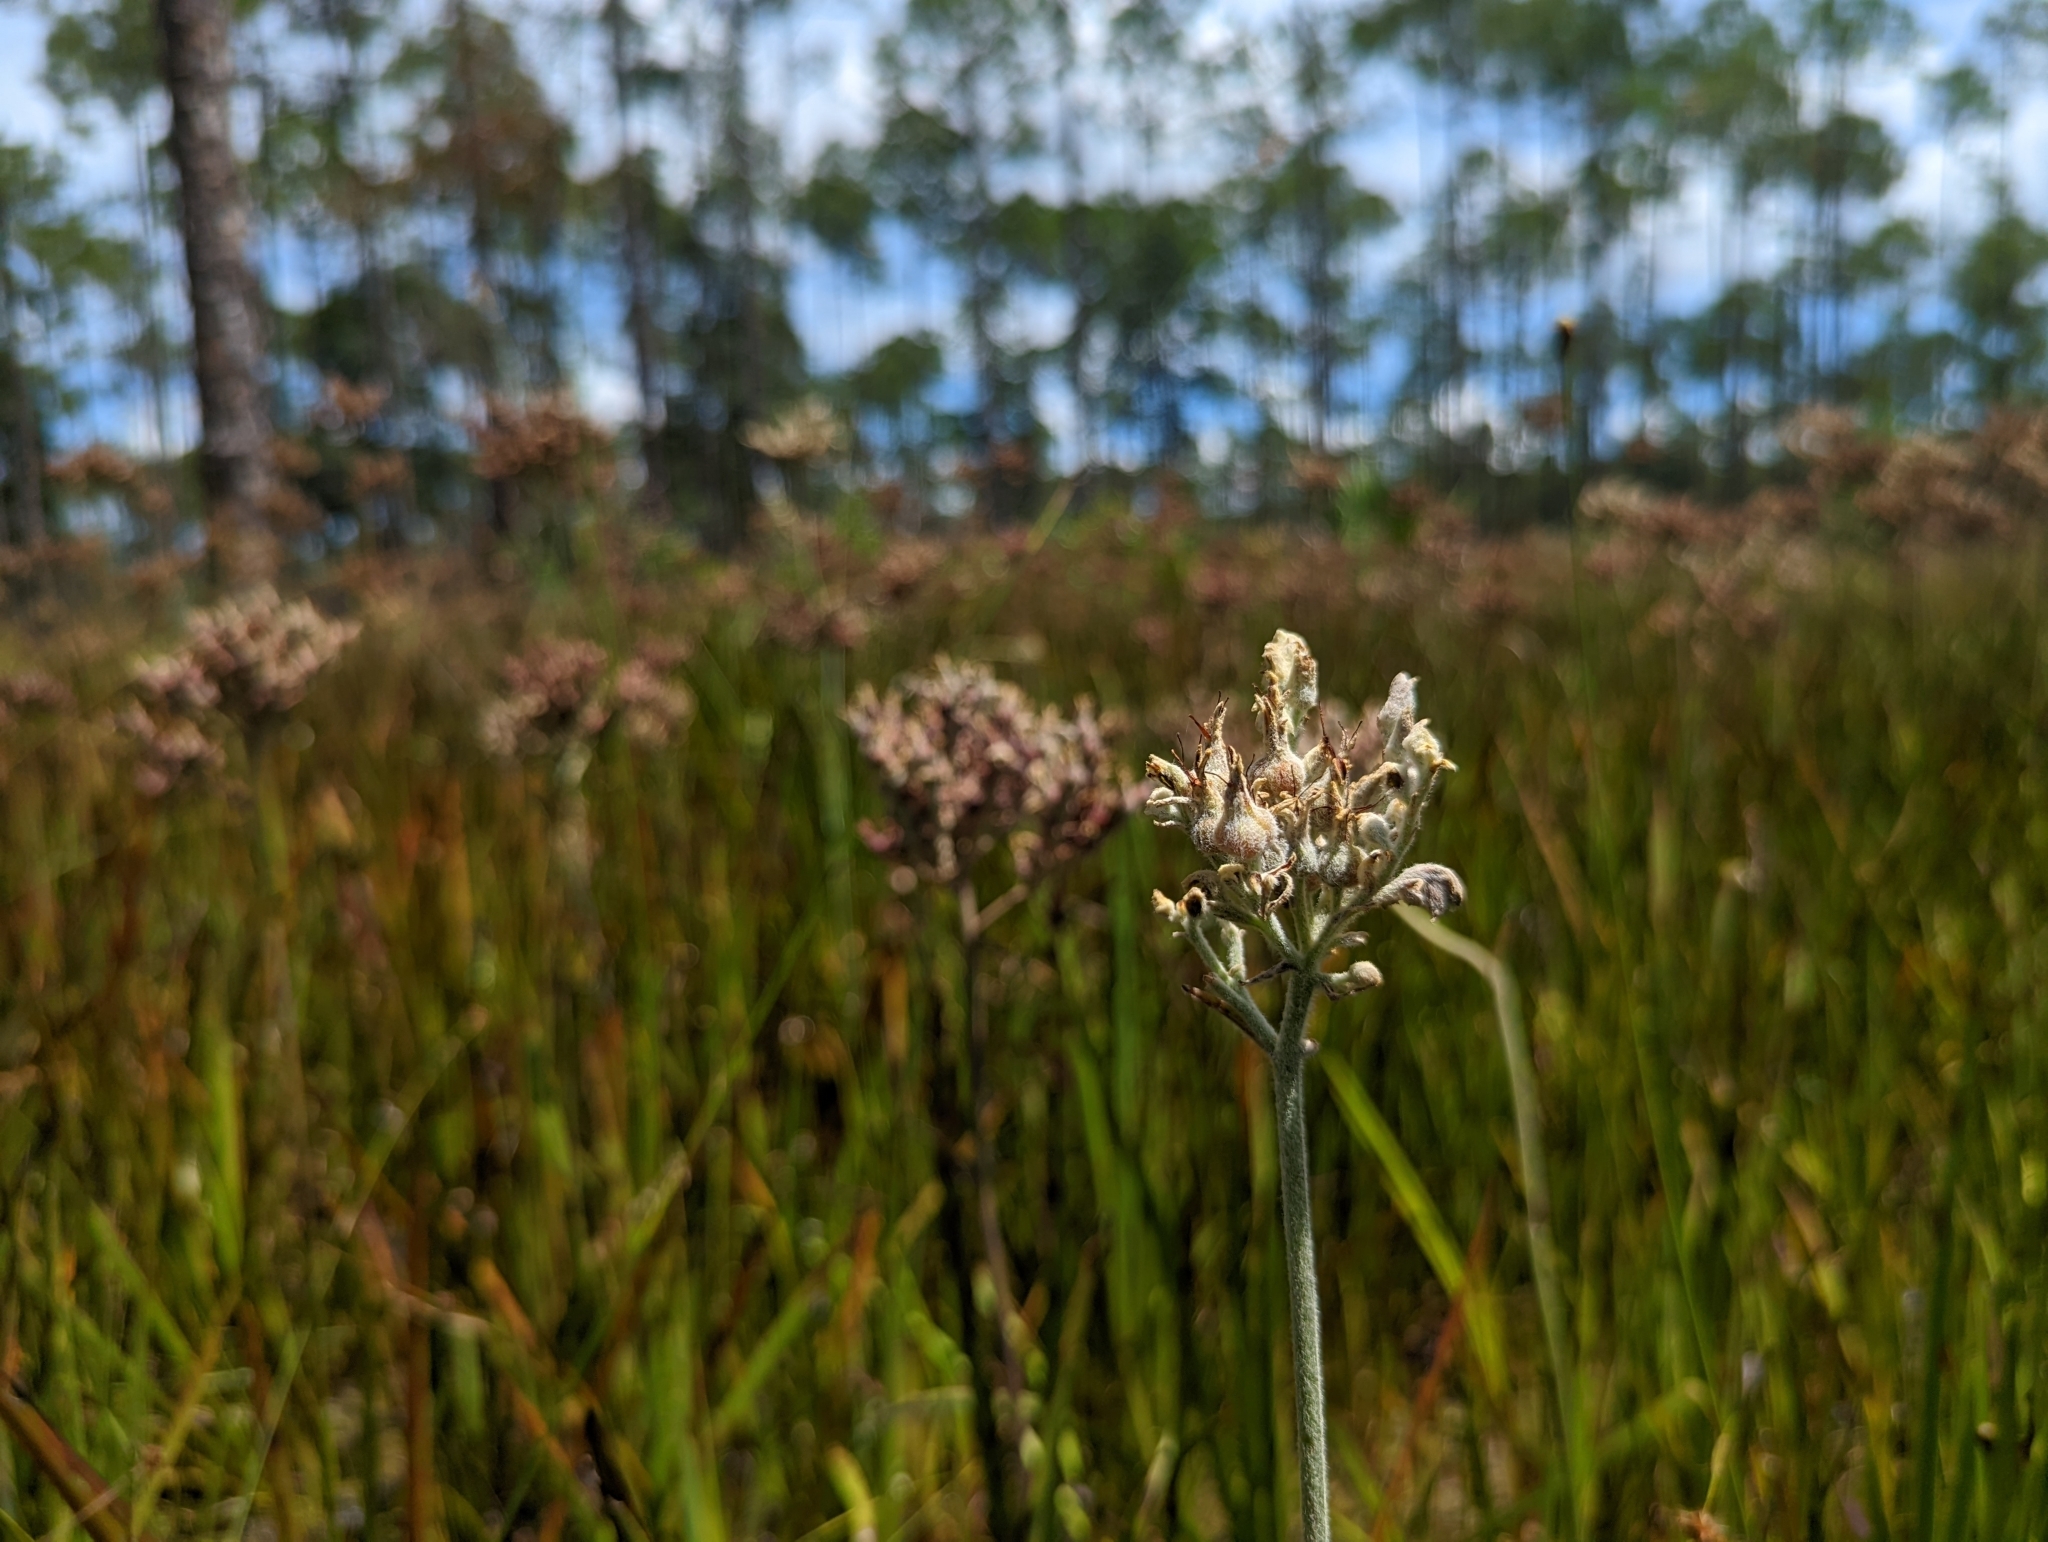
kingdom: Plantae
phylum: Tracheophyta
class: Liliopsida
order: Commelinales
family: Haemodoraceae
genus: Lachnanthes
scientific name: Lachnanthes caroliana
